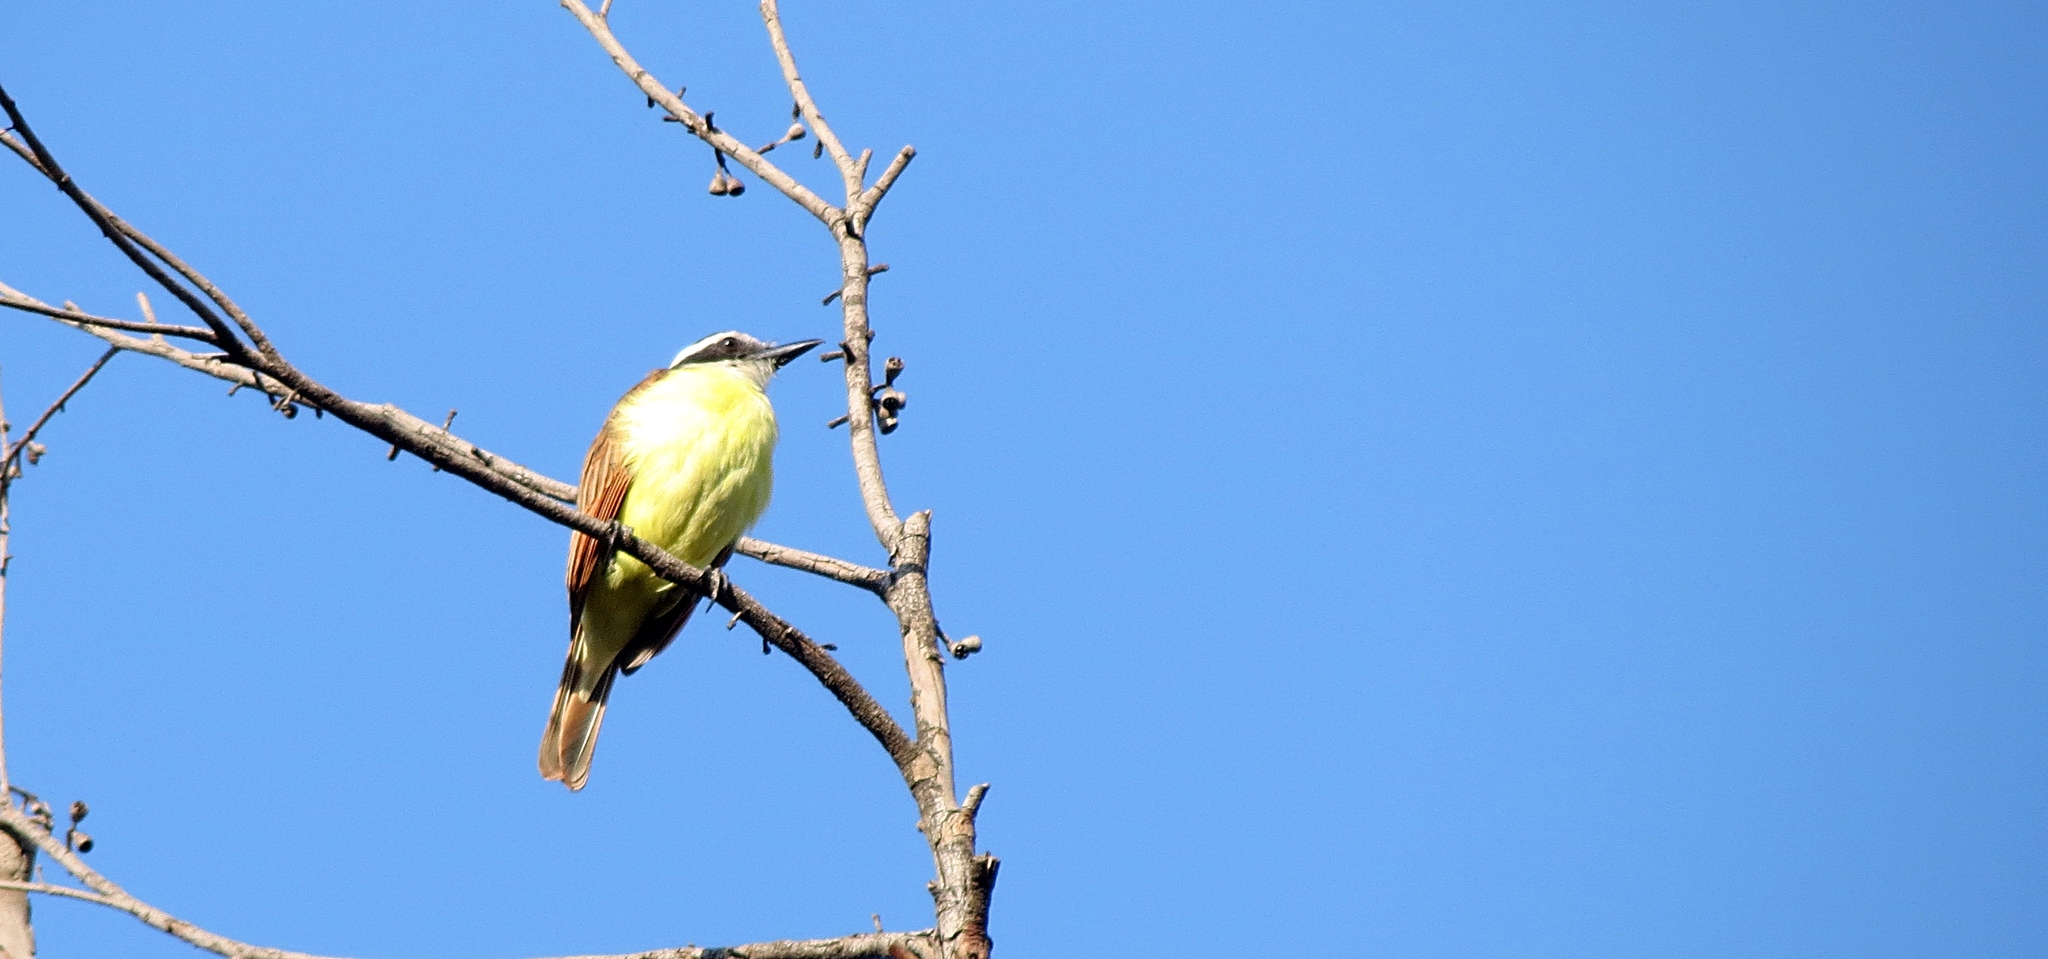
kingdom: Animalia
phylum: Chordata
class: Aves
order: Passeriformes
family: Tyrannidae
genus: Pitangus
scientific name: Pitangus sulphuratus
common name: Great kiskadee
